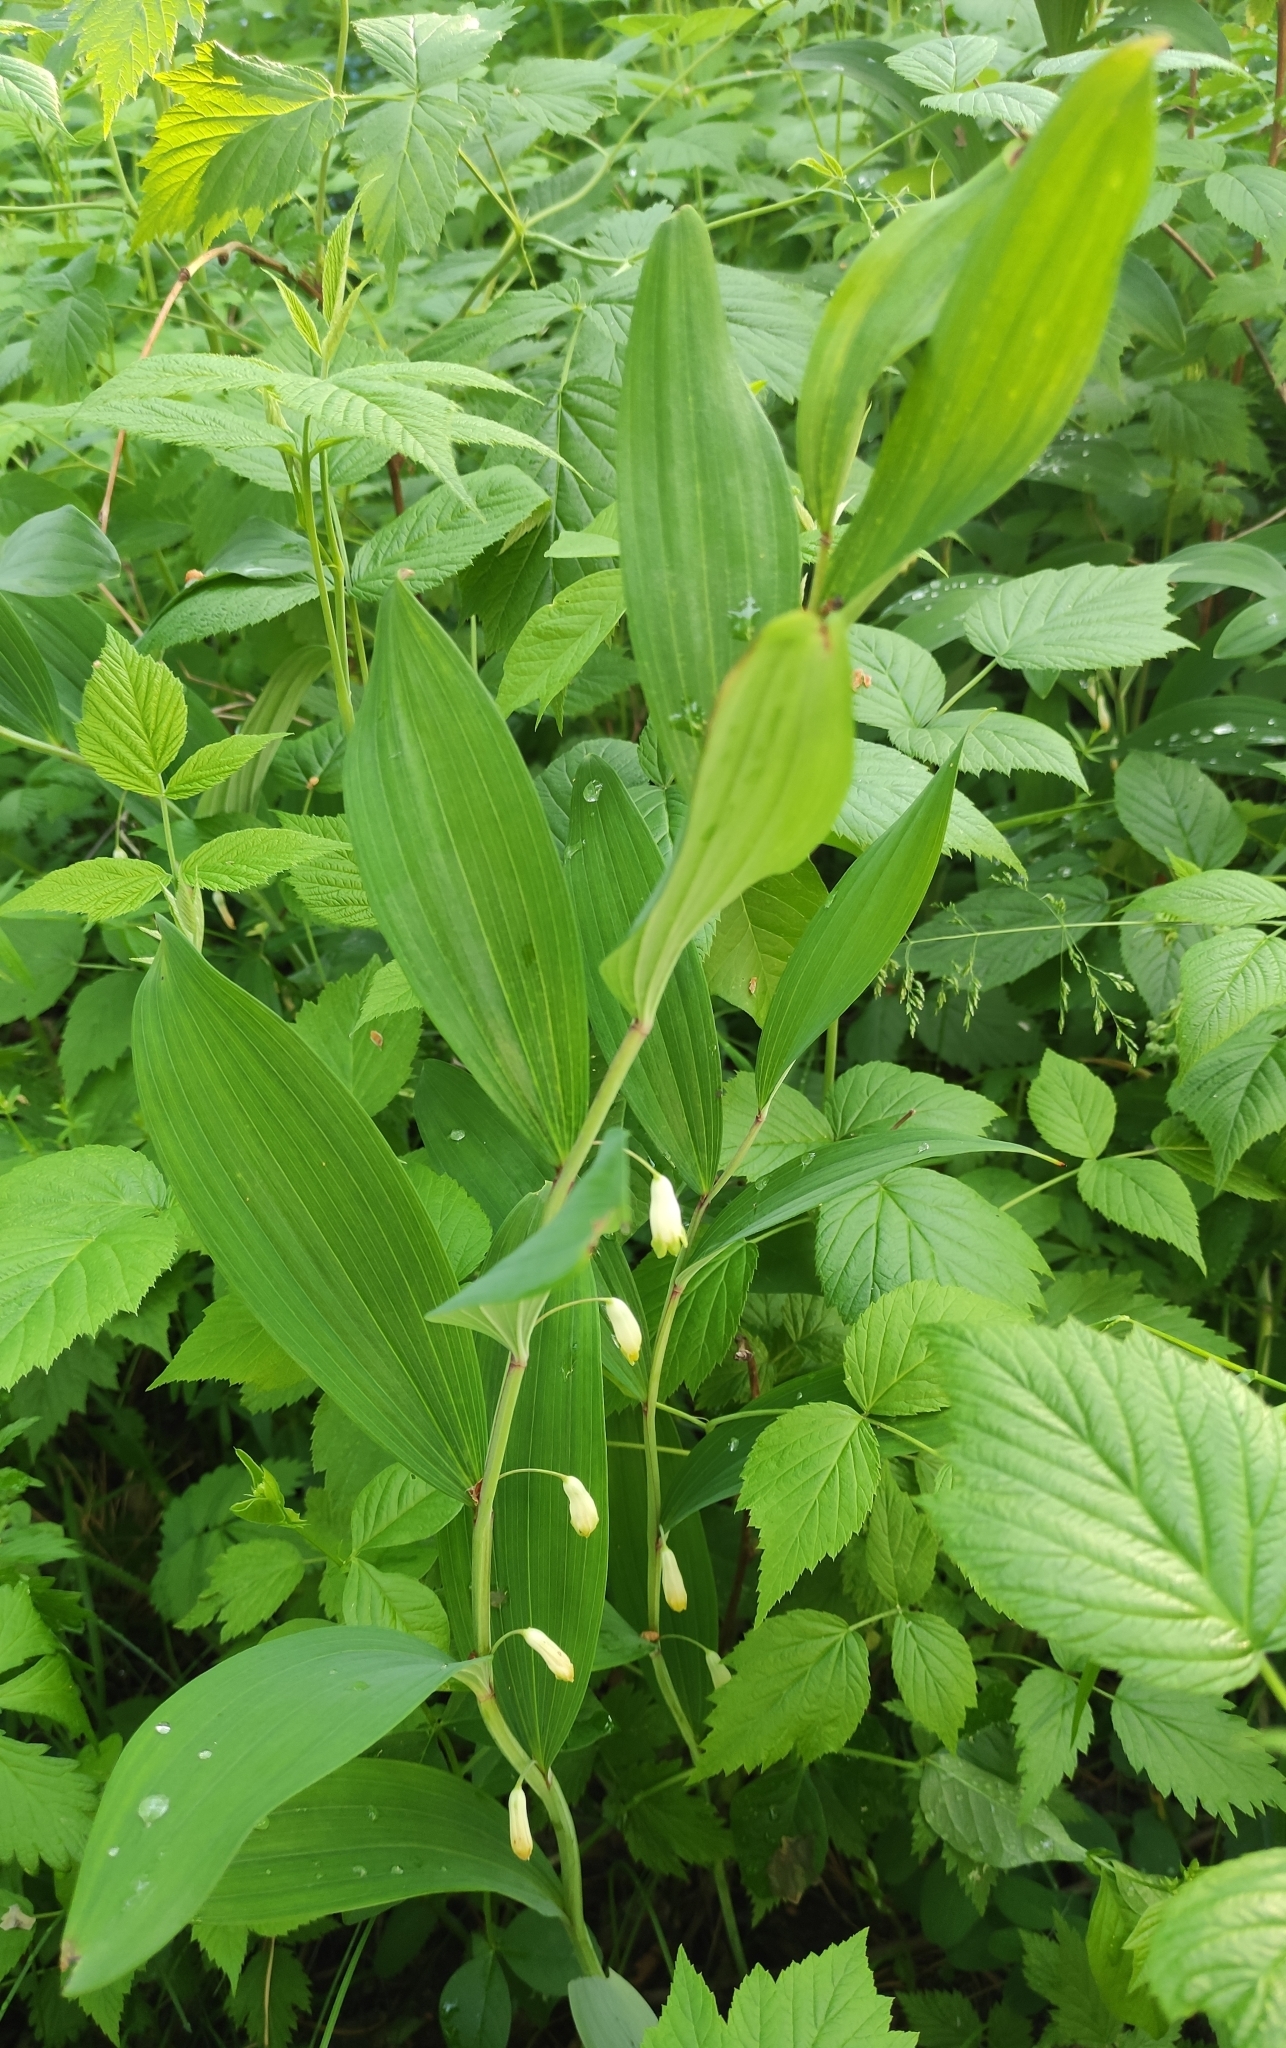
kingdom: Plantae
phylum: Tracheophyta
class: Liliopsida
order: Asparagales
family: Asparagaceae
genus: Polygonatum
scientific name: Polygonatum odoratum
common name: Angular solomon's-seal
